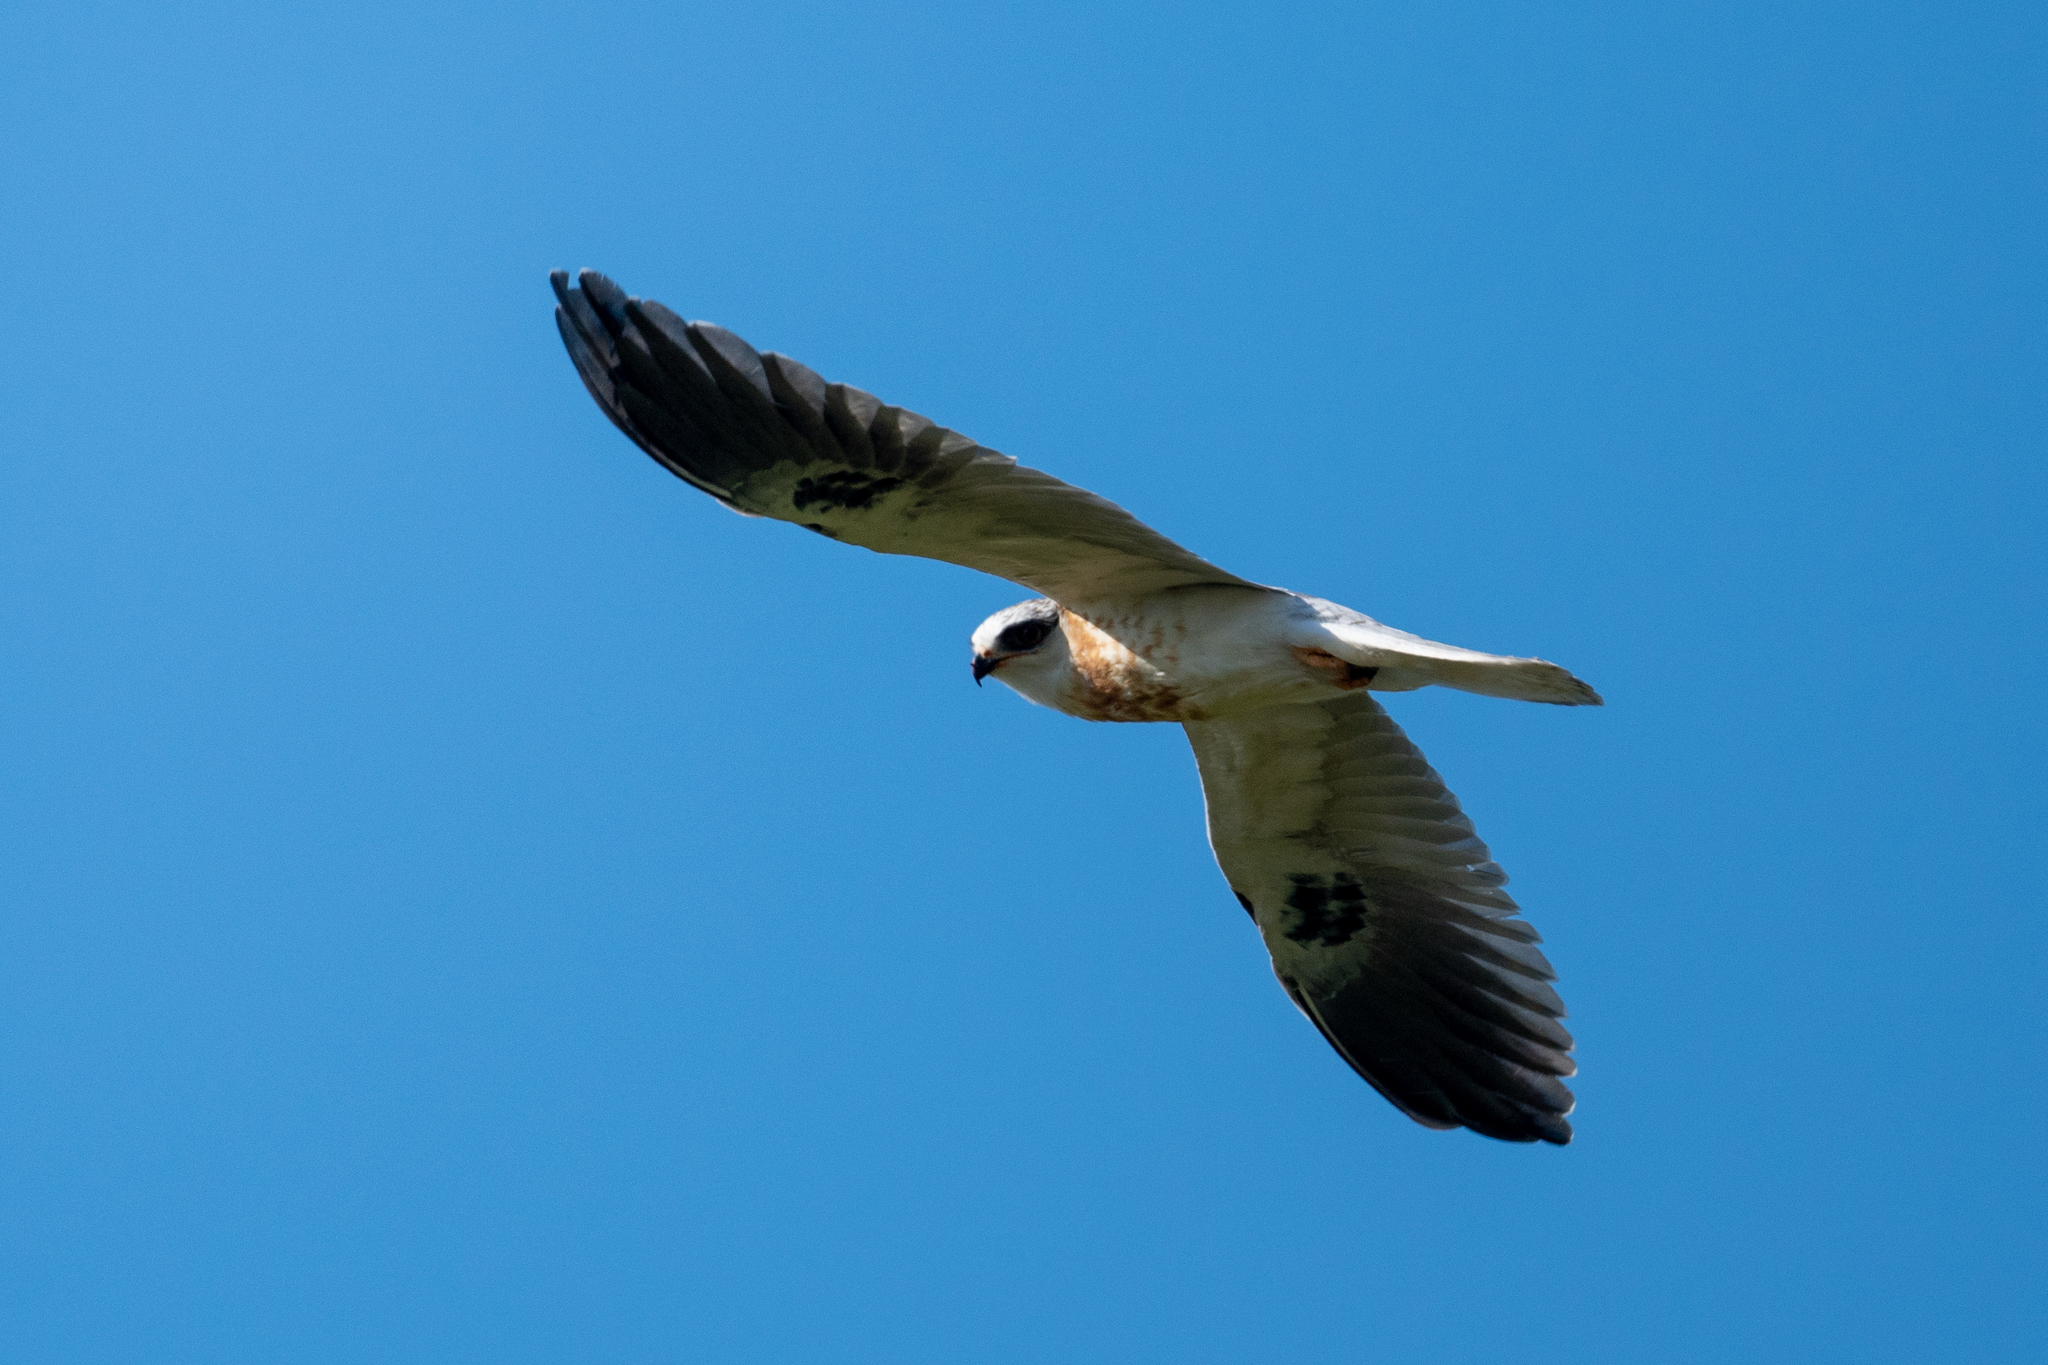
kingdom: Animalia
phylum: Chordata
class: Aves
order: Accipitriformes
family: Accipitridae
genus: Elanus
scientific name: Elanus leucurus
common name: White-tailed kite
